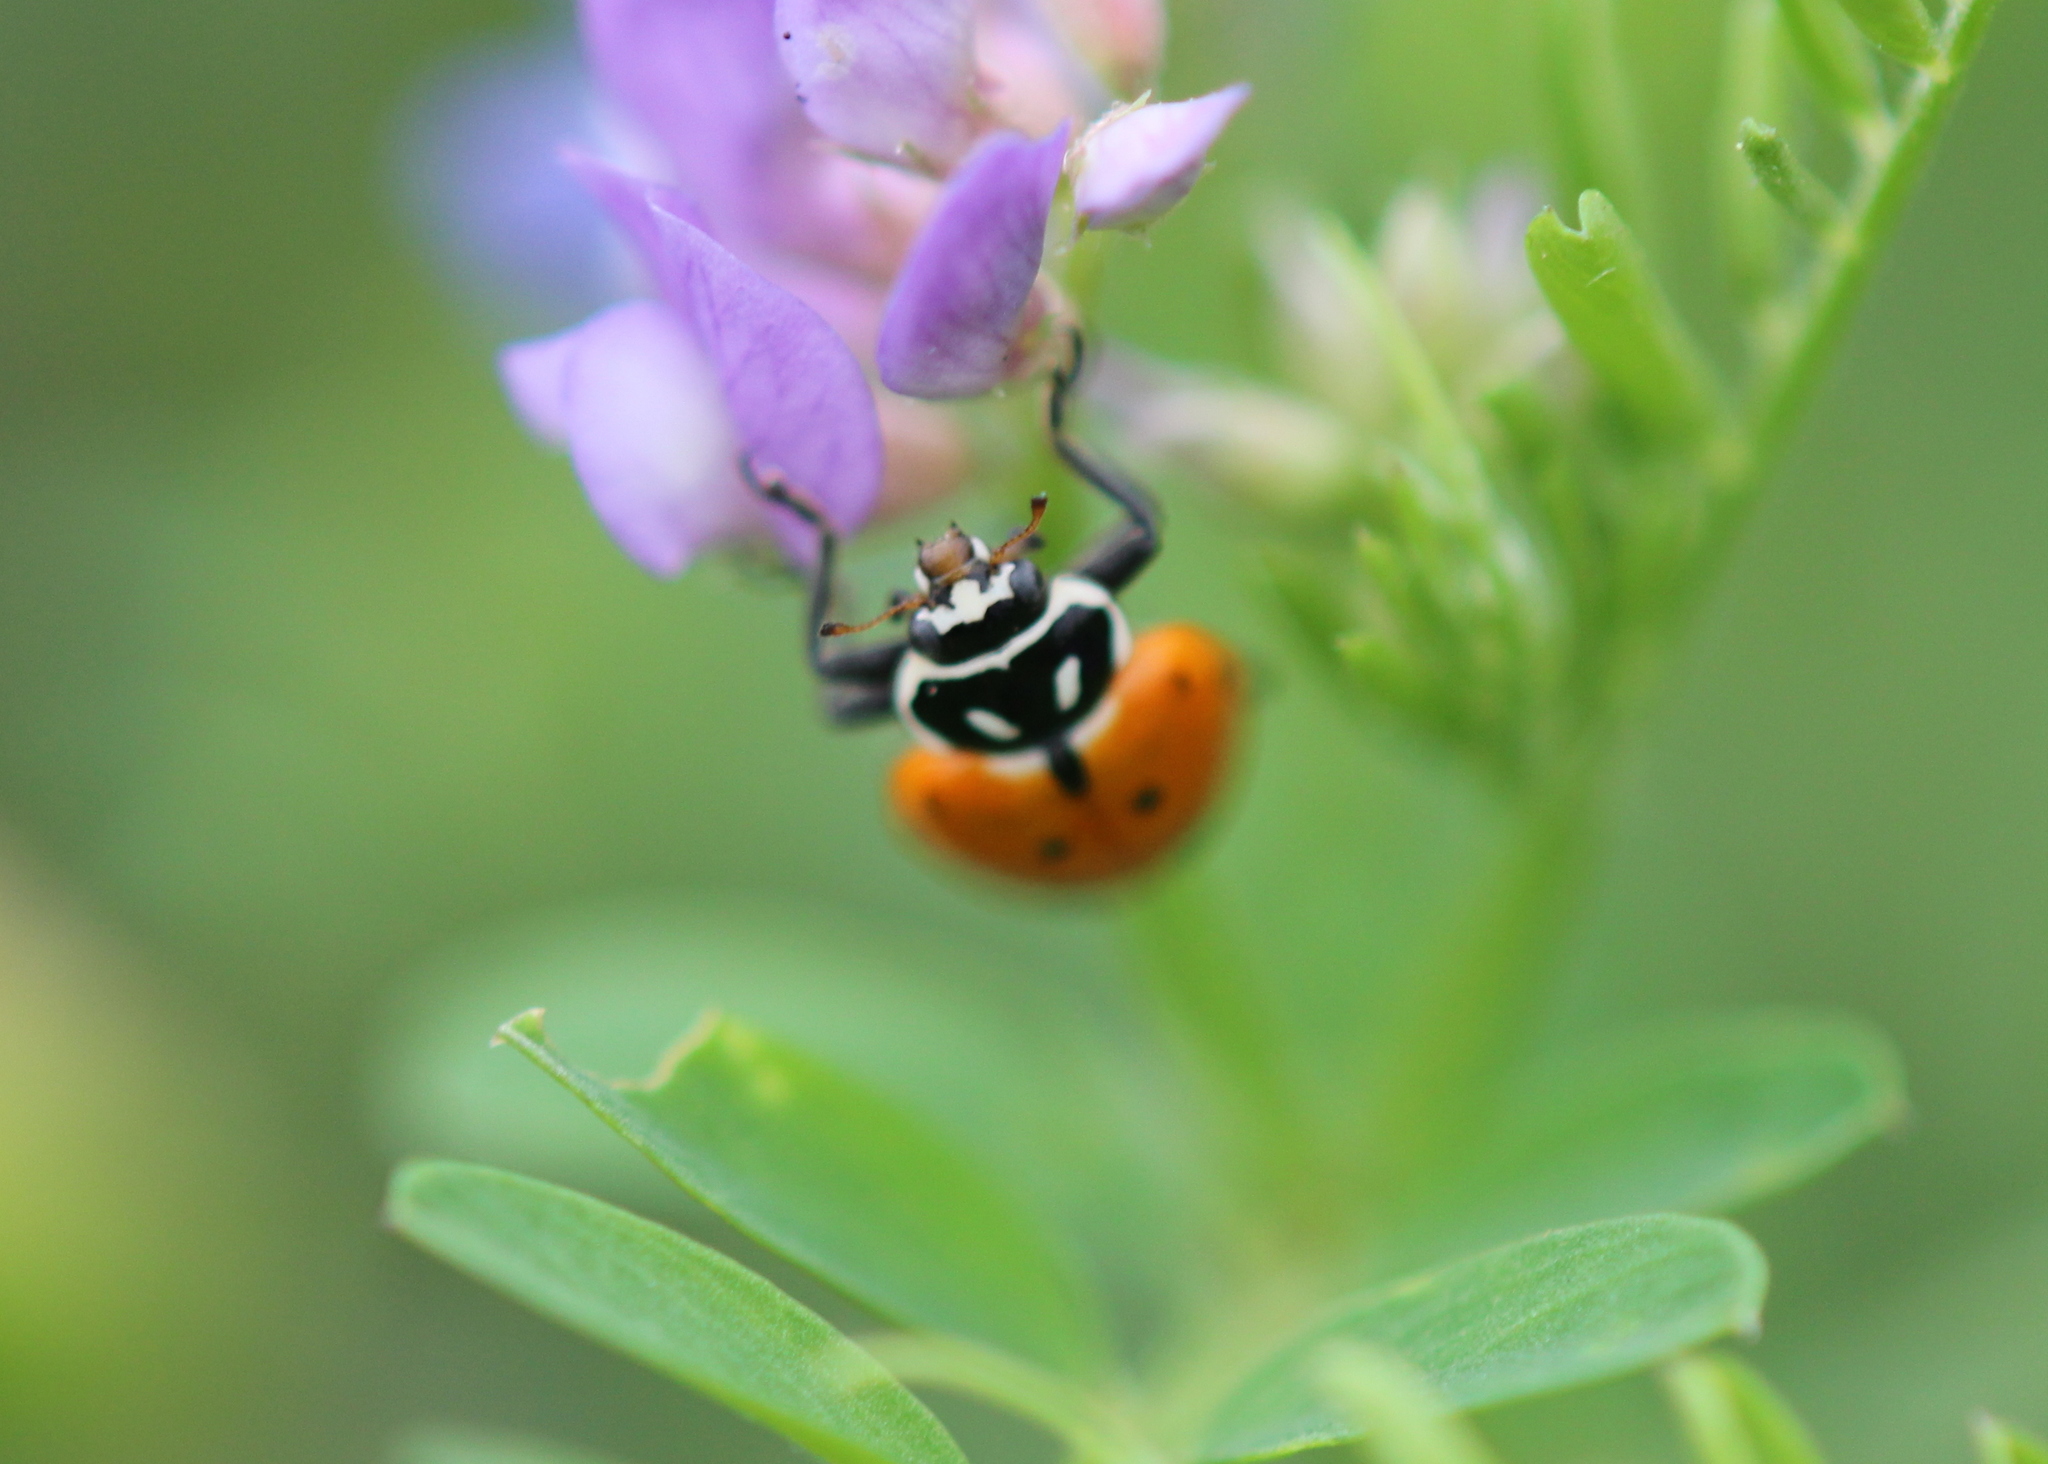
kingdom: Animalia
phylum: Arthropoda
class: Insecta
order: Coleoptera
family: Coccinellidae
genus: Hippodamia
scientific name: Hippodamia convergens
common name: Convergent lady beetle
